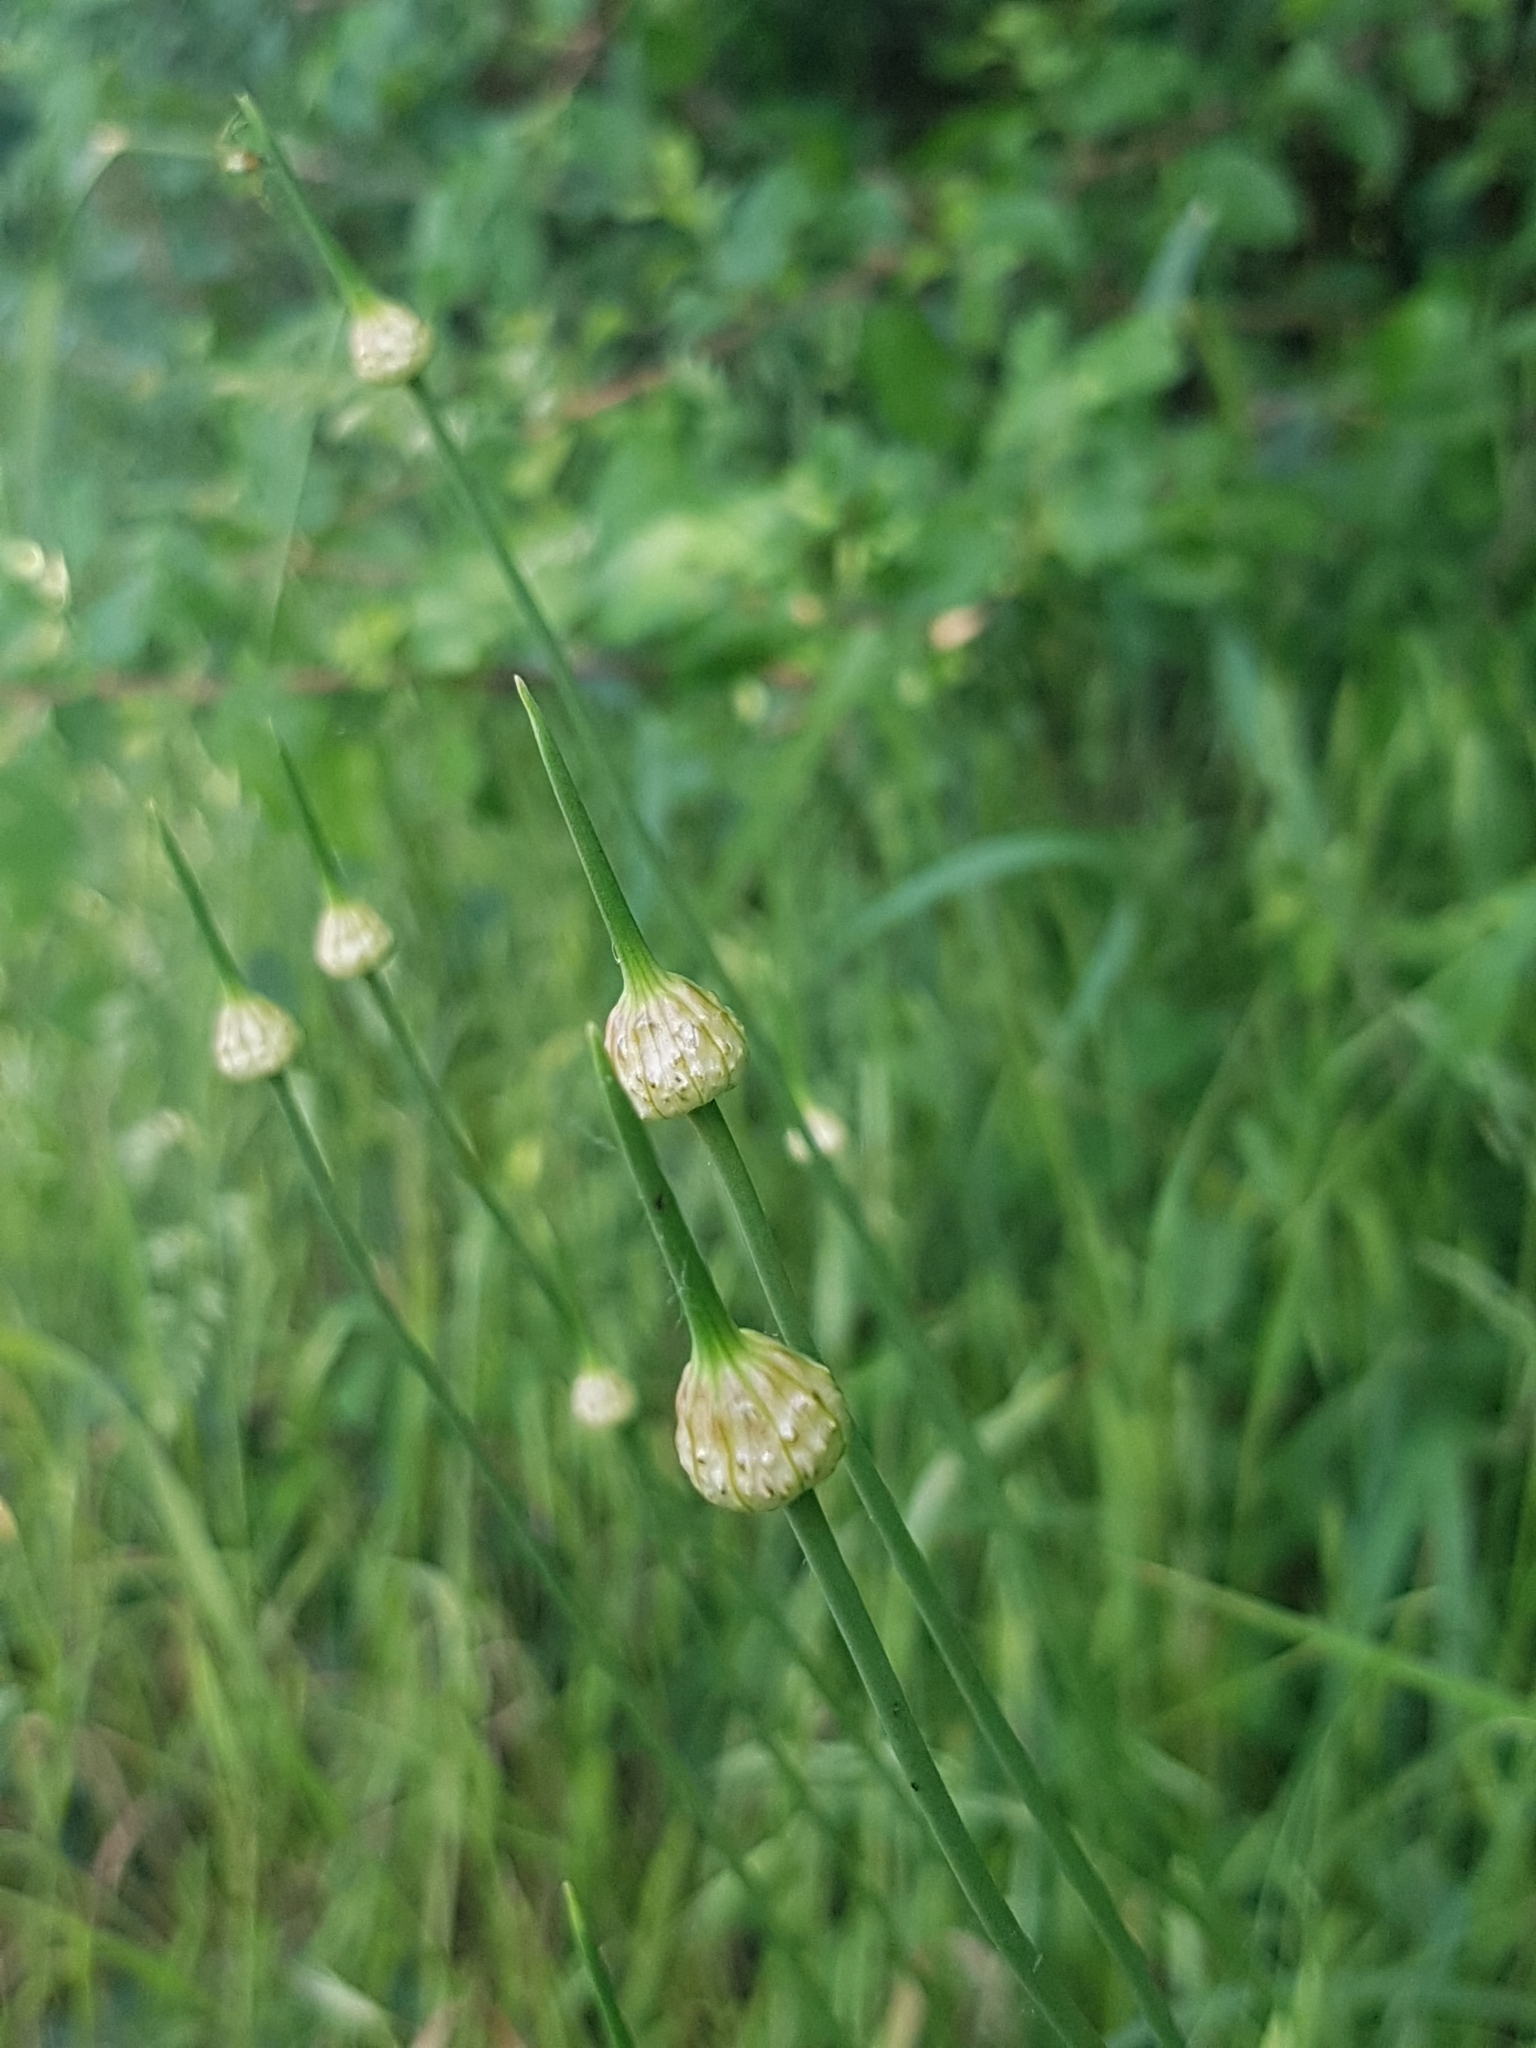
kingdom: Plantae
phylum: Tracheophyta
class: Liliopsida
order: Asparagales
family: Amaryllidaceae
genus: Allium
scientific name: Allium vineale
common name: Crow garlic
